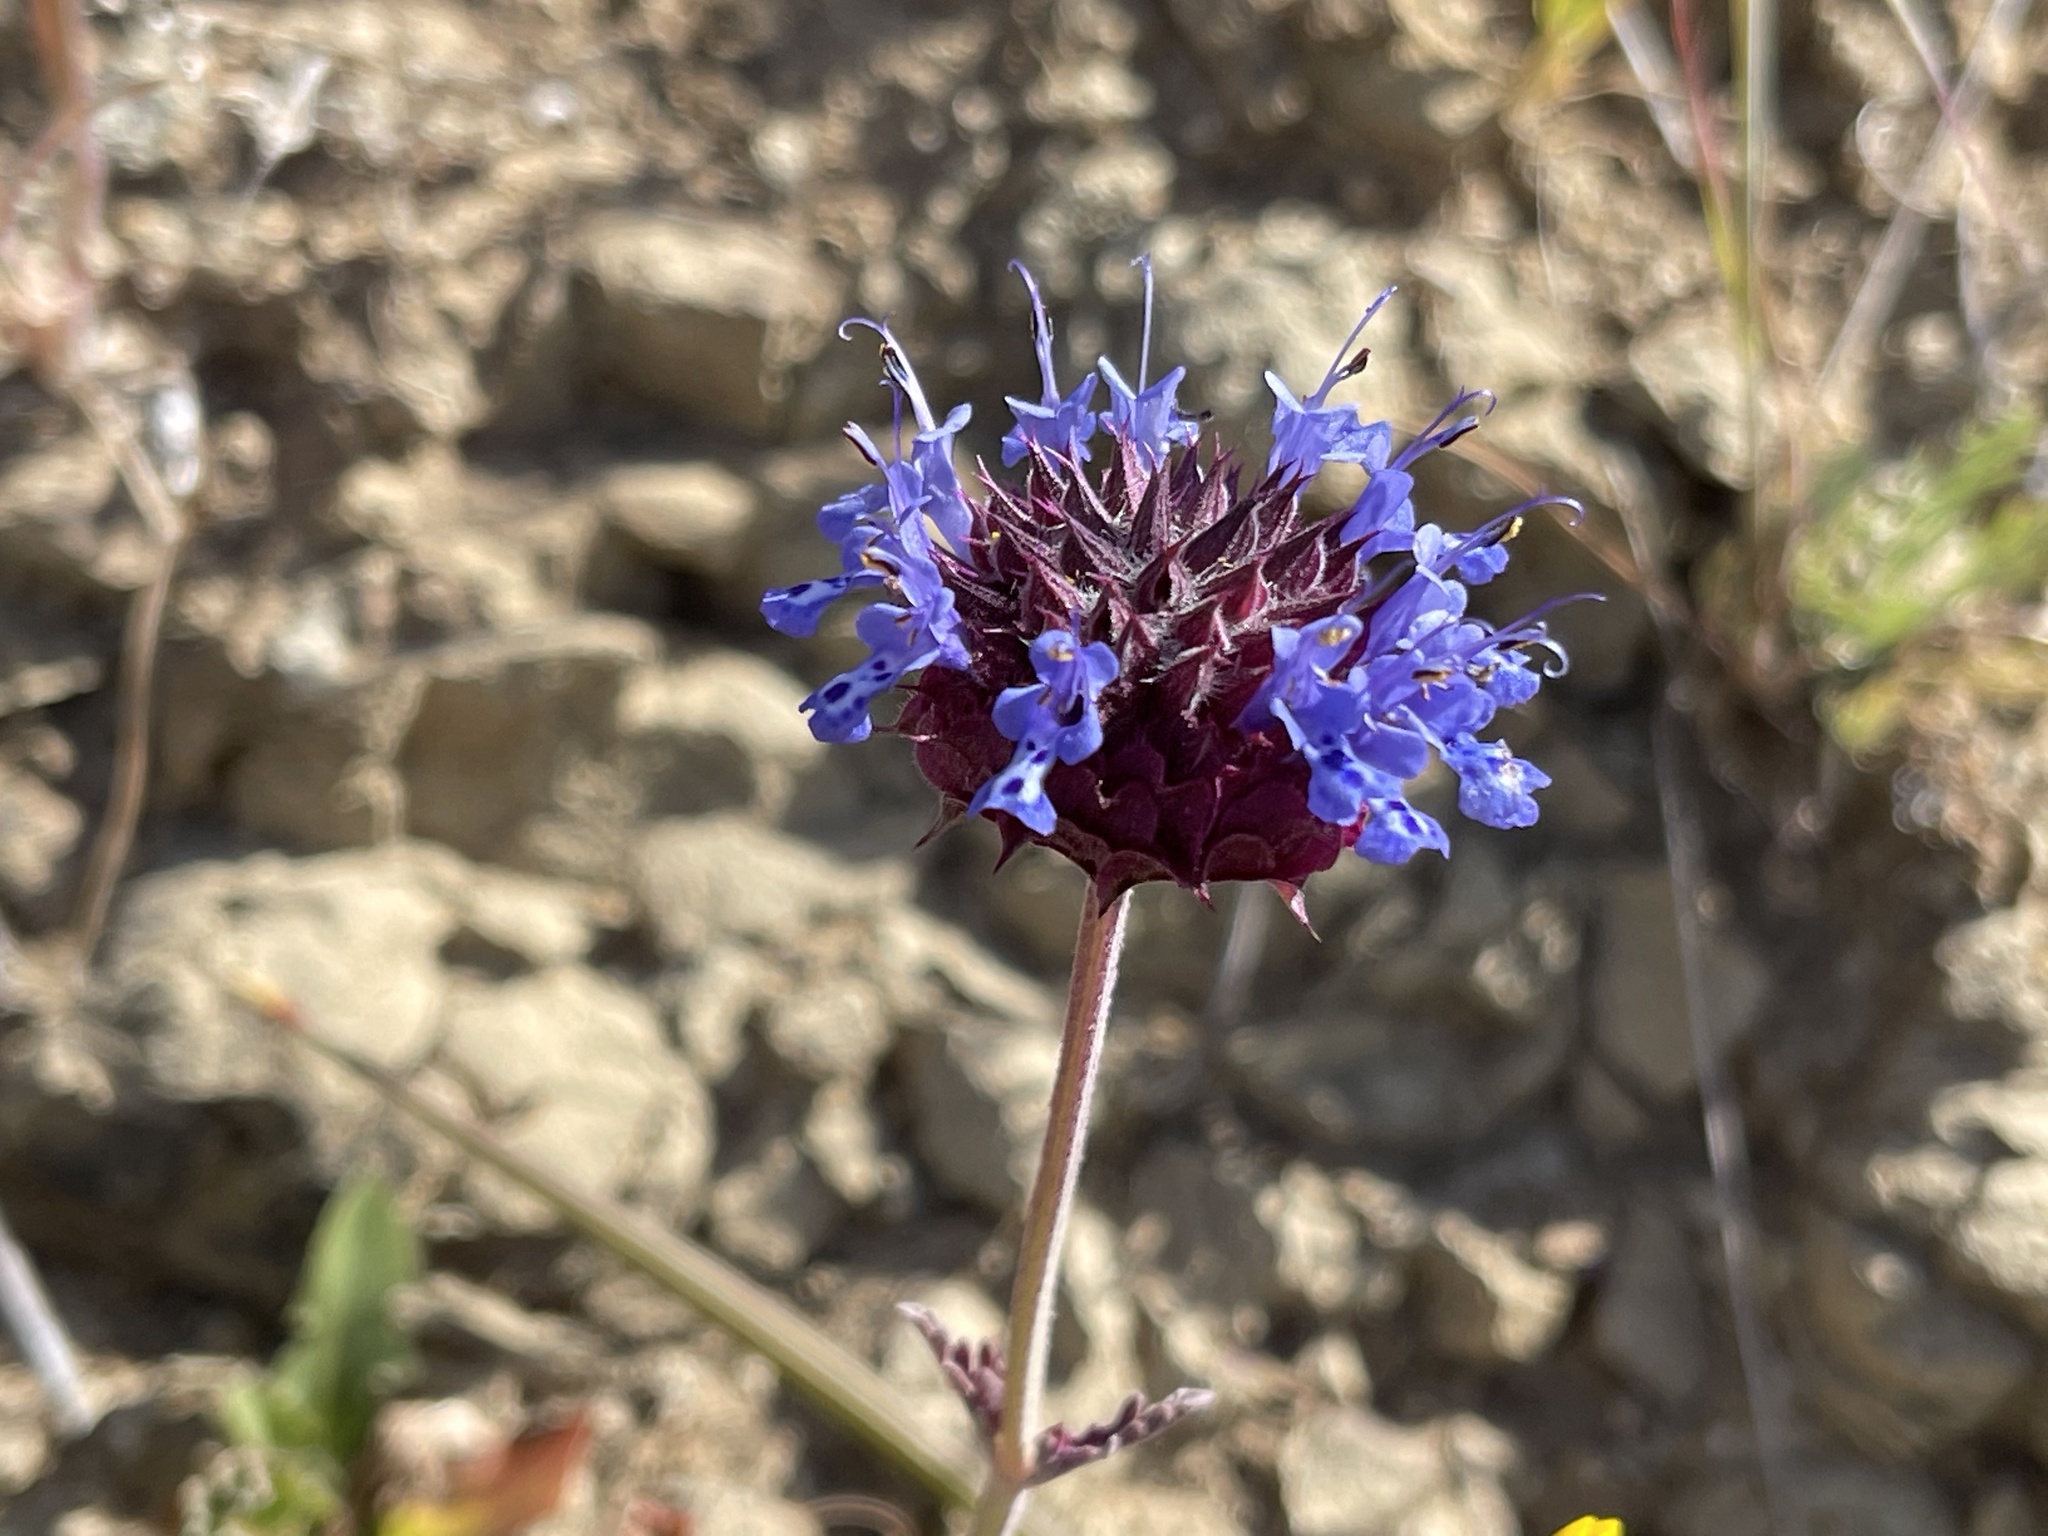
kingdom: Plantae
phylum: Tracheophyta
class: Magnoliopsida
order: Lamiales
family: Lamiaceae
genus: Salvia
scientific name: Salvia columbariae
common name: Chia
